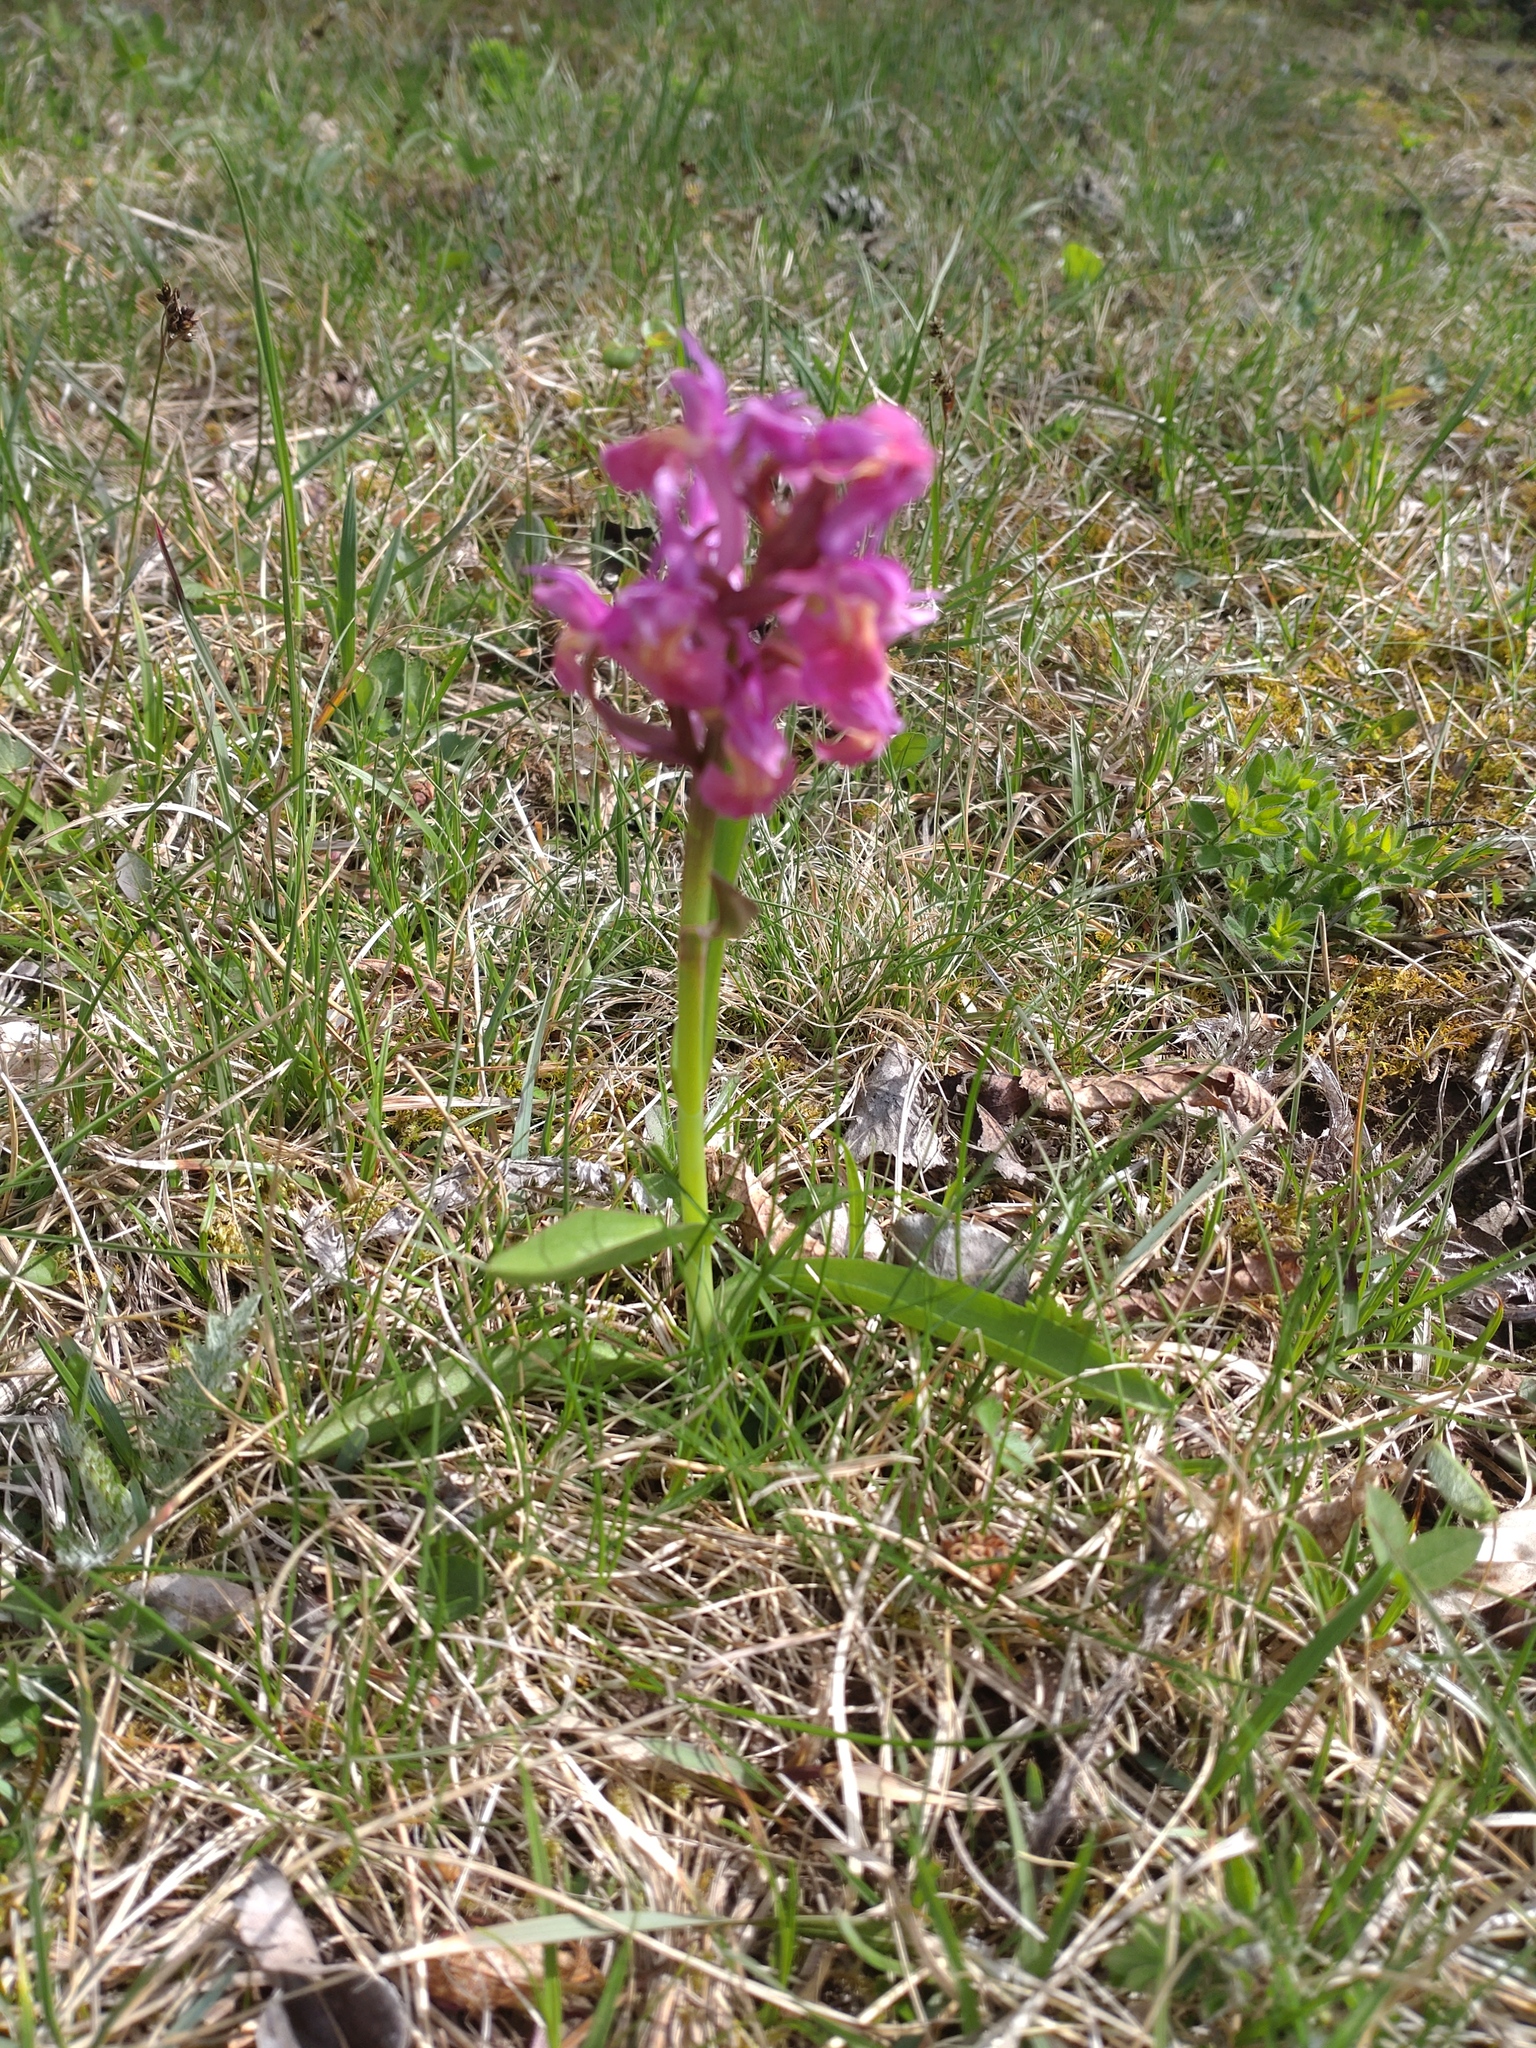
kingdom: Plantae
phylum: Tracheophyta
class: Liliopsida
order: Asparagales
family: Orchidaceae
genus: Dactylorhiza
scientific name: Dactylorhiza sambucina
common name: Elder-flowered orchid
